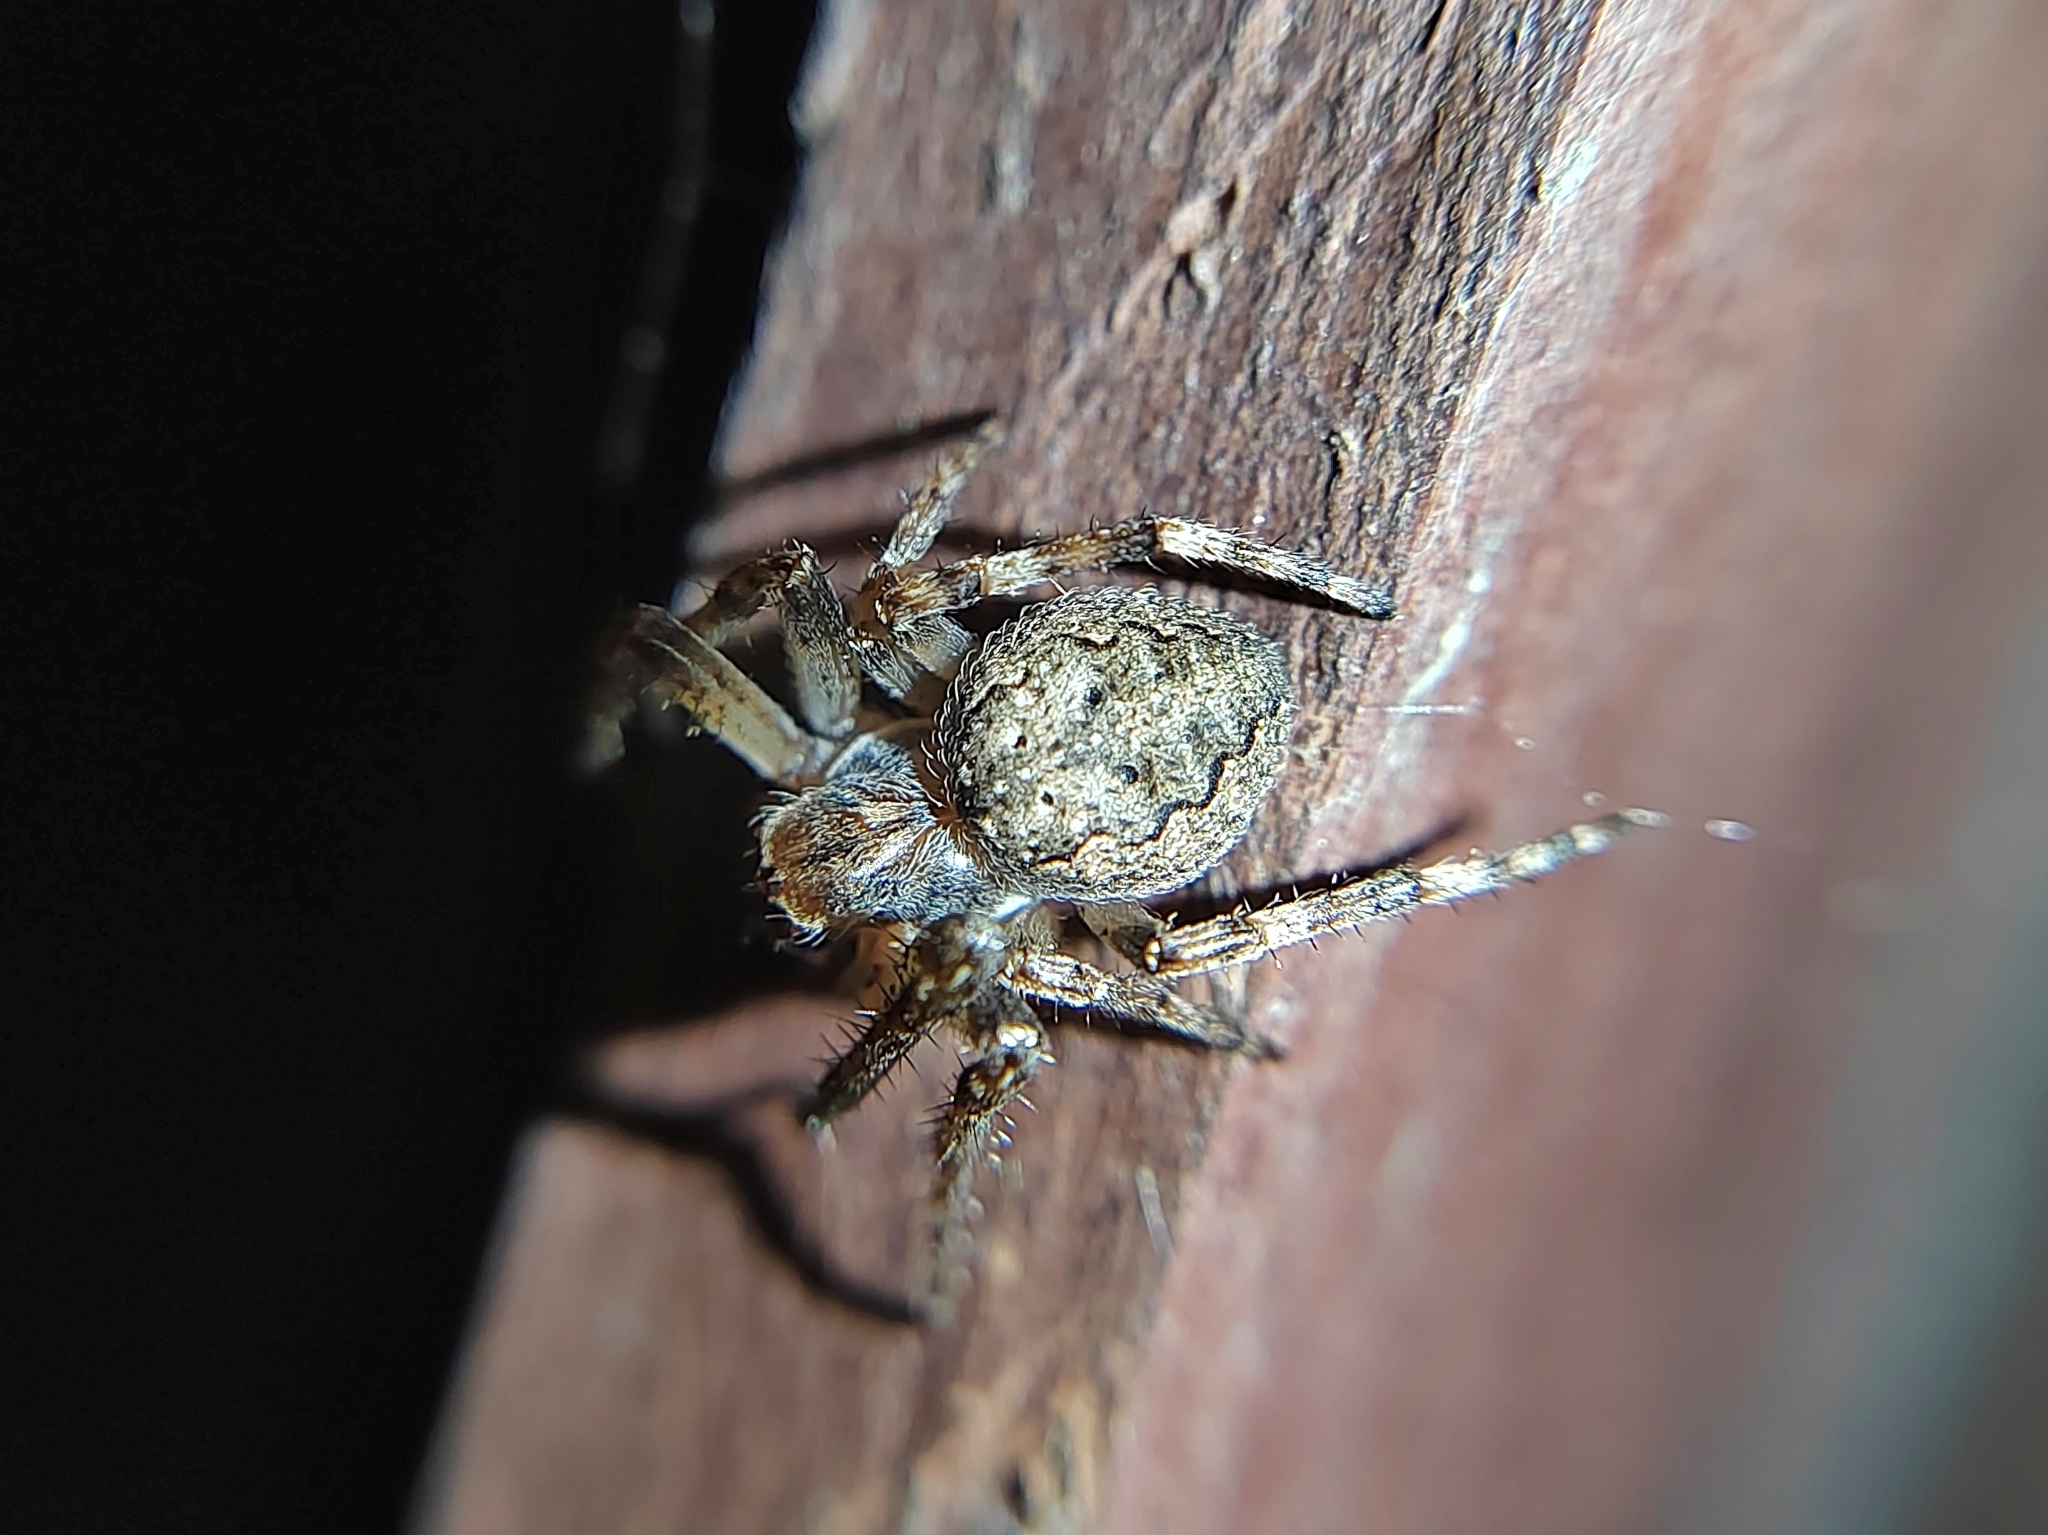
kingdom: Animalia
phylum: Arthropoda
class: Arachnida
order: Araneae
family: Araneidae
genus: Larinioides
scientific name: Larinioides ixobolus
